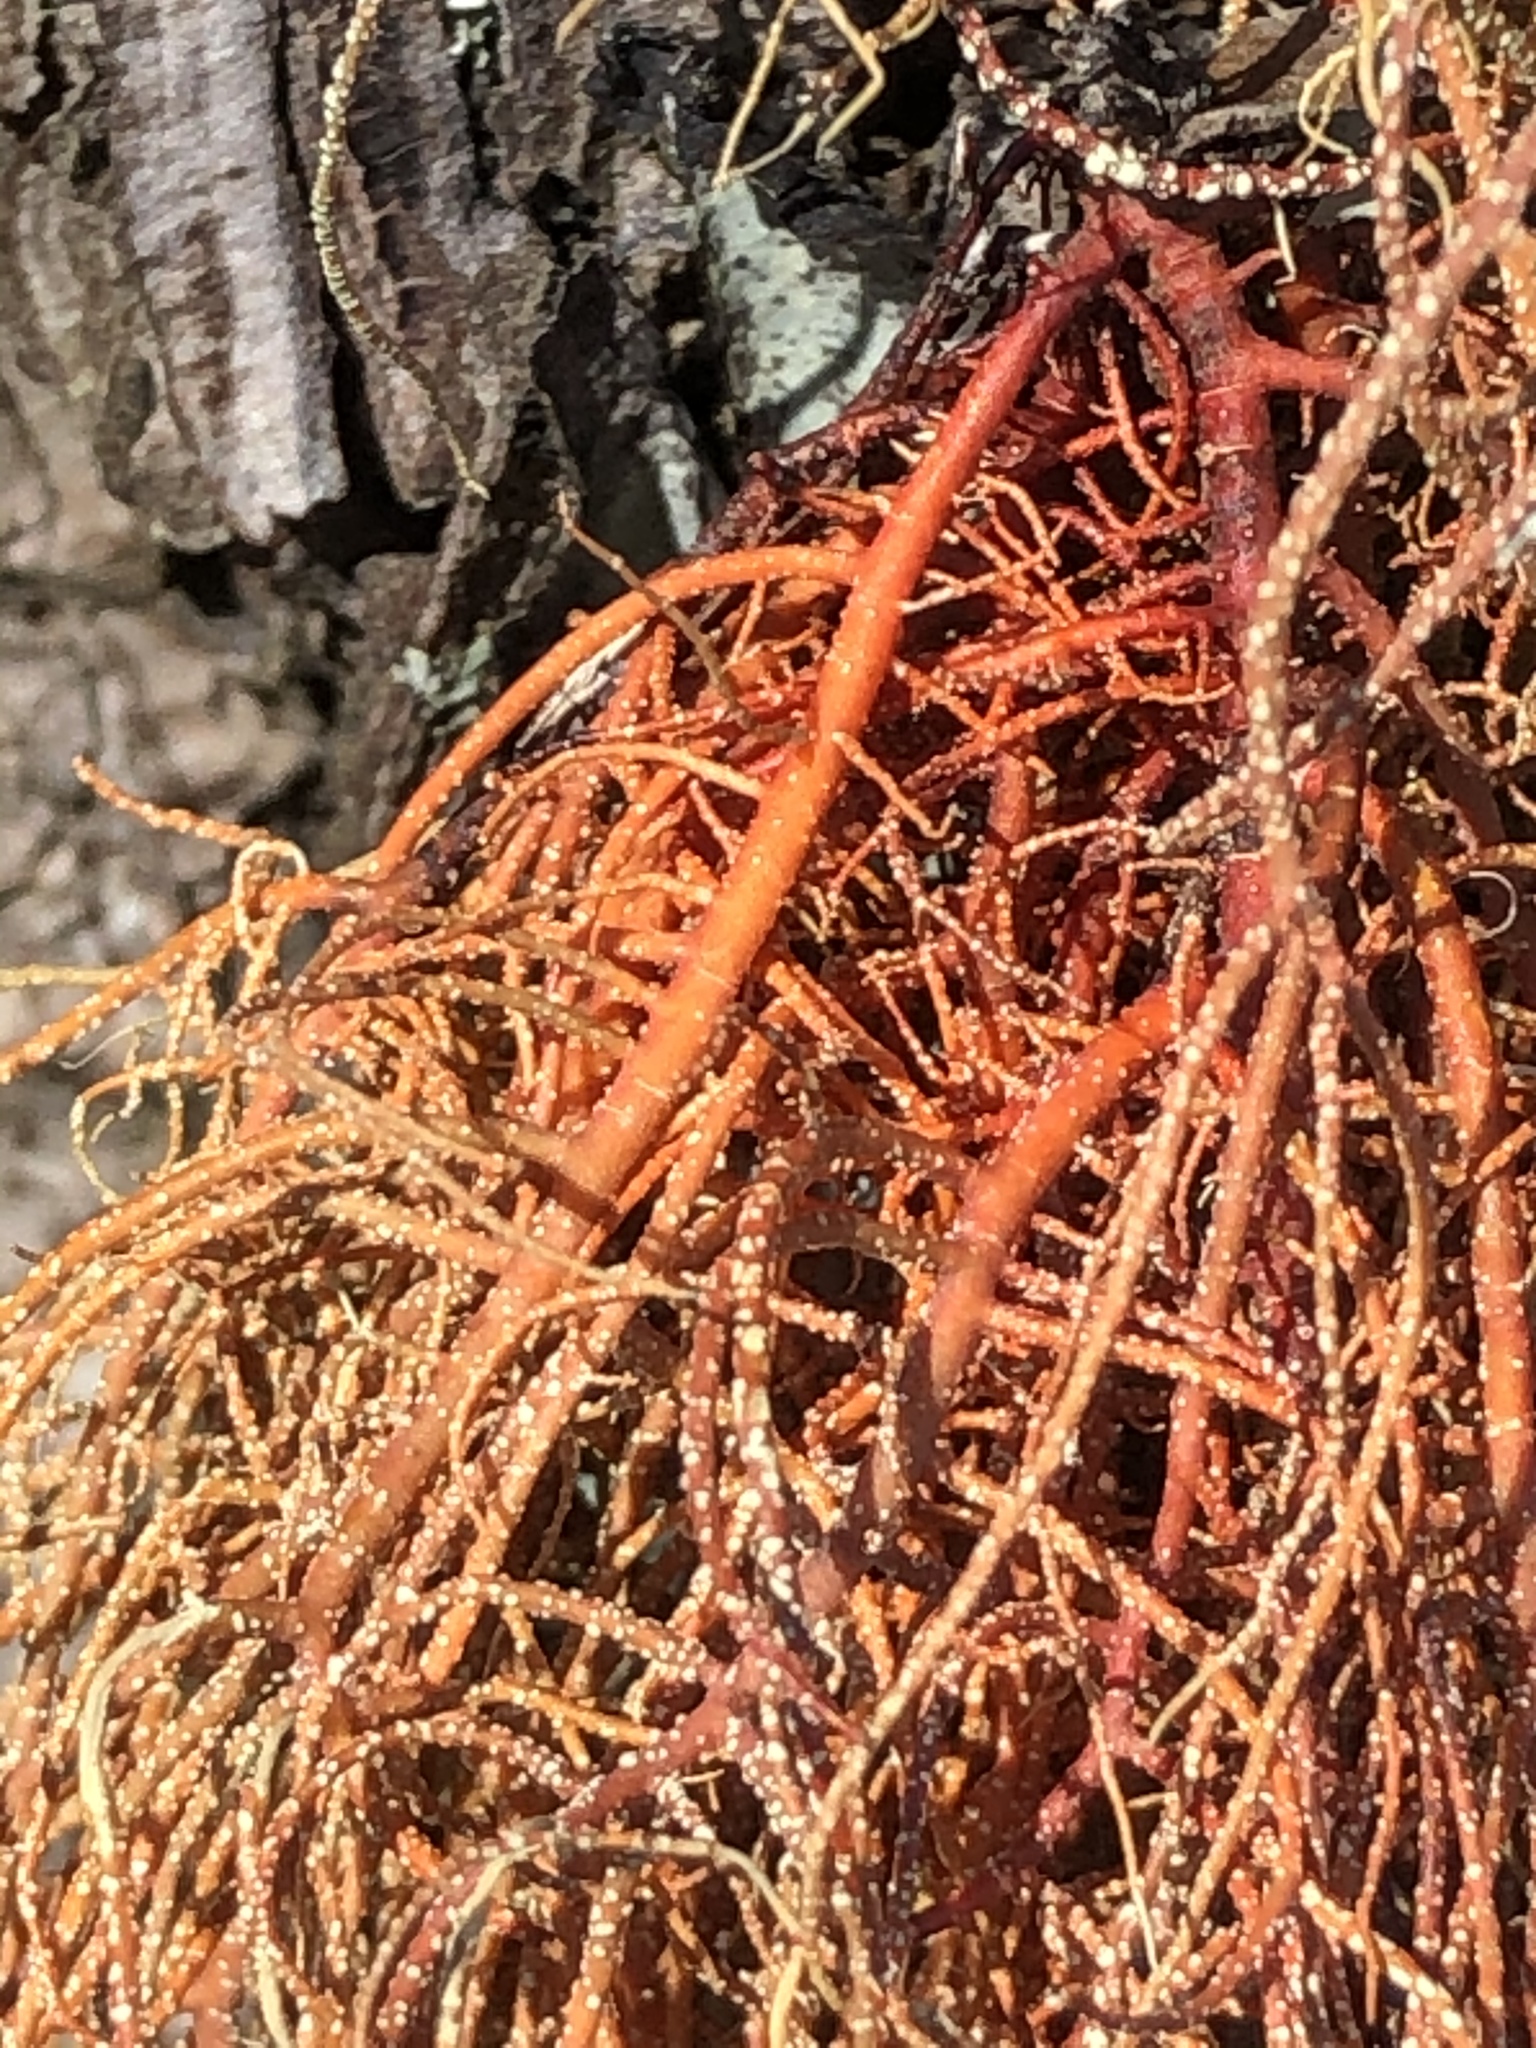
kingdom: Fungi
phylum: Ascomycota
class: Lecanoromycetes
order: Lecanorales
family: Parmeliaceae
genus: Usnea
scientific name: Usnea rubicunda
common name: Red beard lichen
